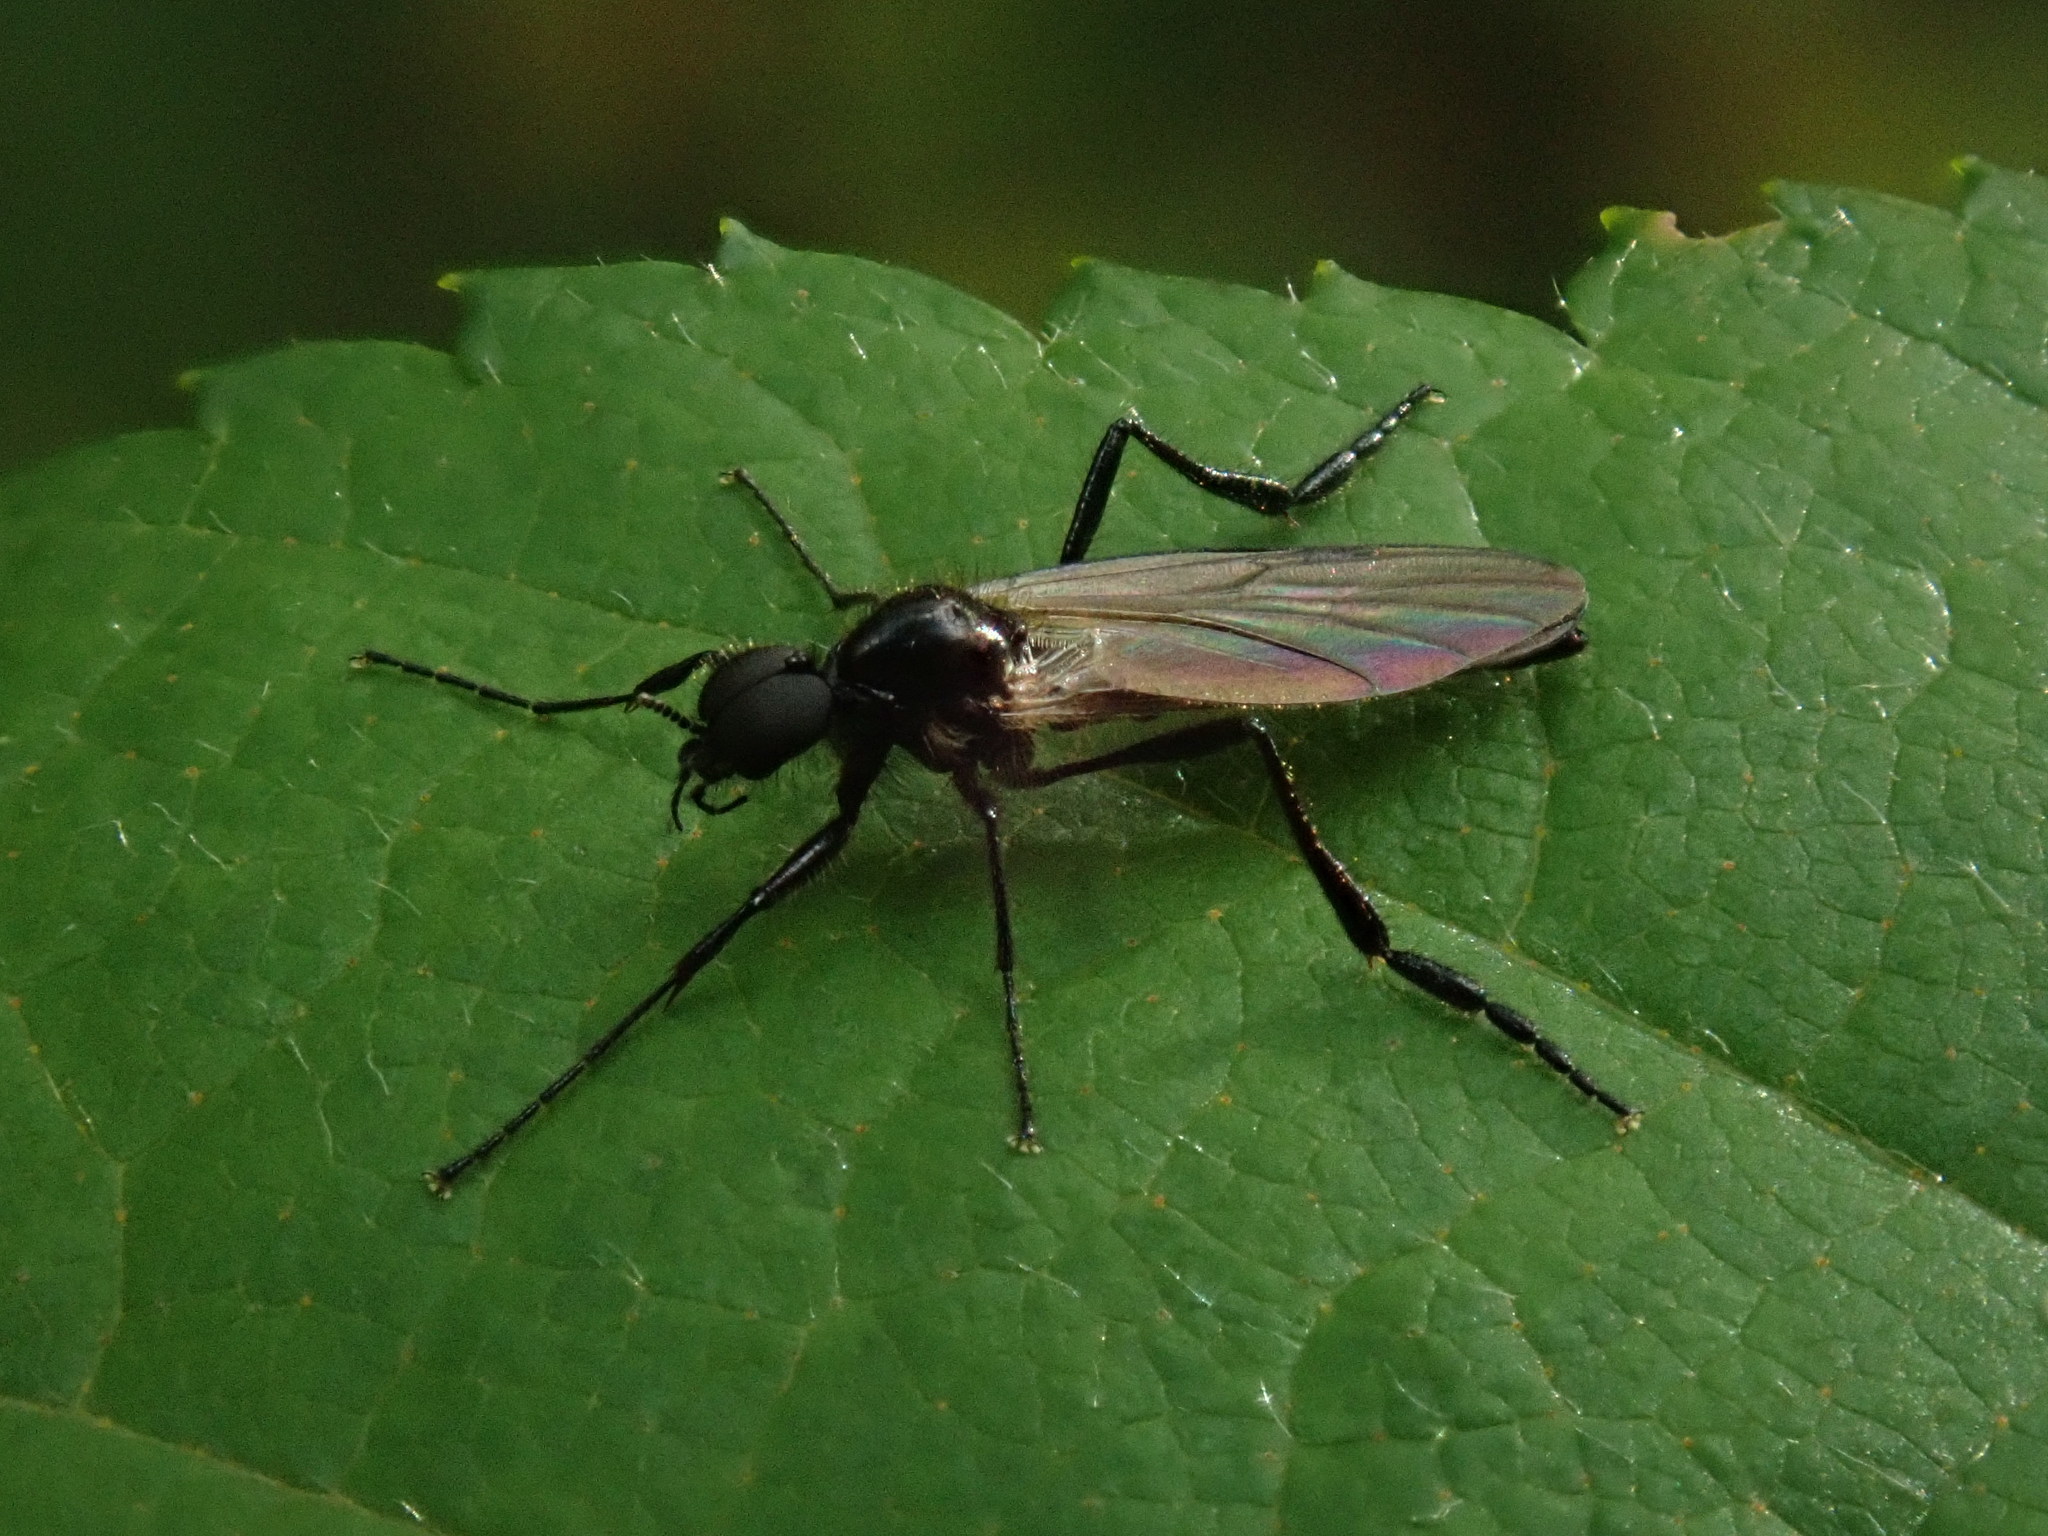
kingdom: Animalia
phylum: Arthropoda
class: Insecta
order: Diptera
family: Bibionidae
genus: Bibio
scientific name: Bibio longipes
